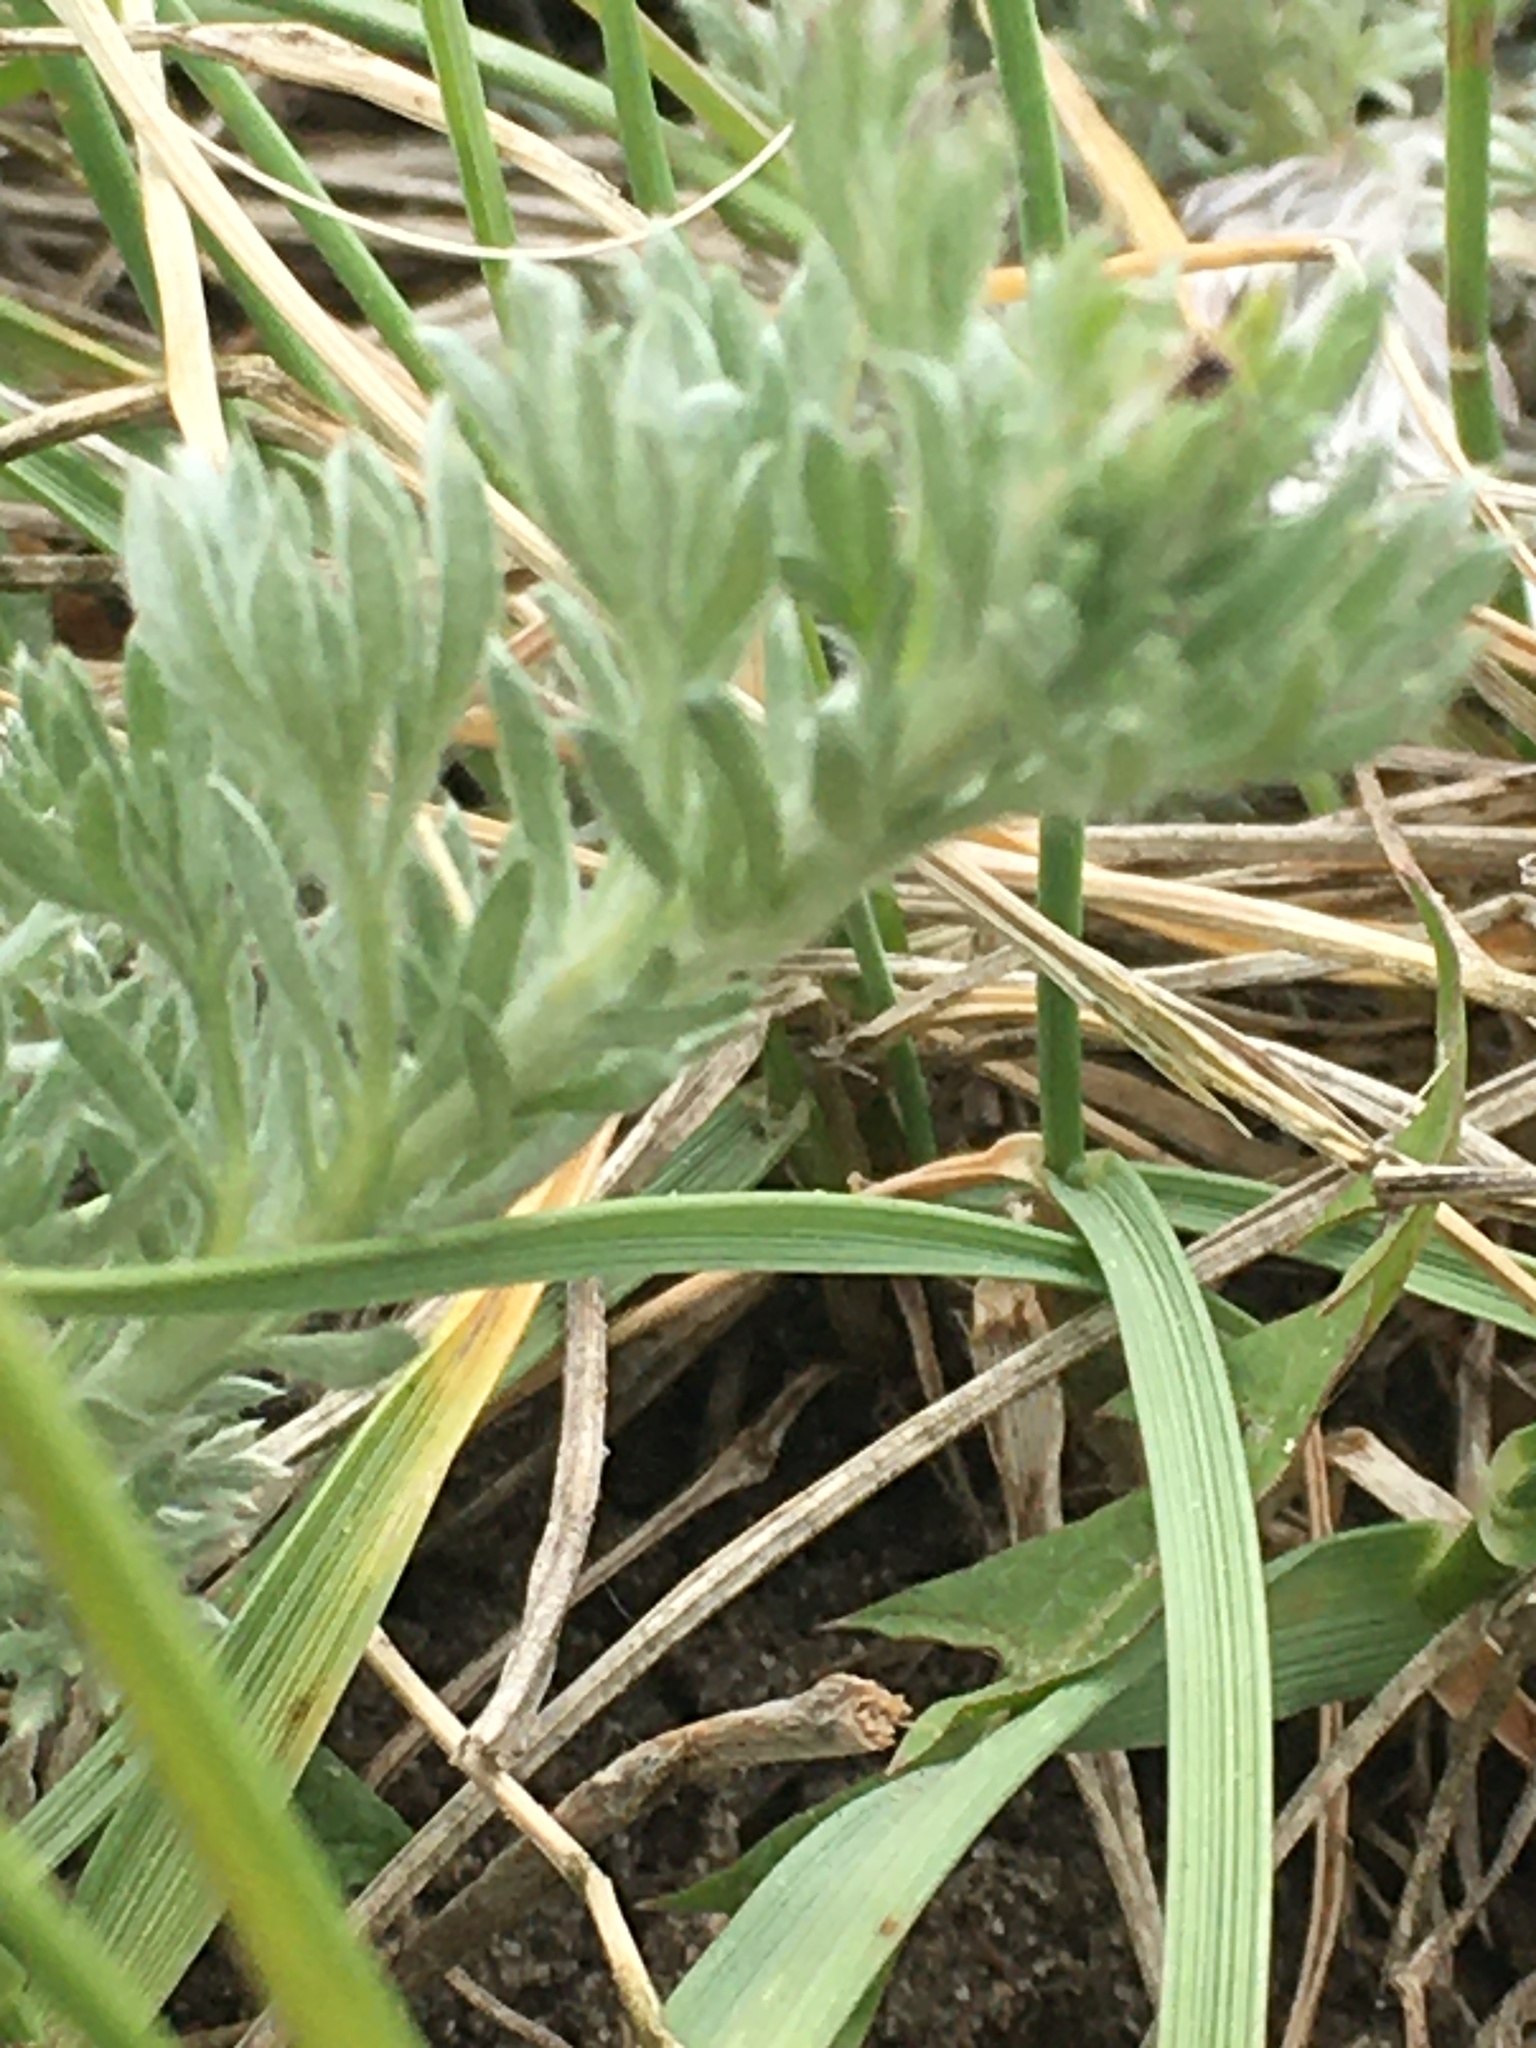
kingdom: Plantae
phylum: Tracheophyta
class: Magnoliopsida
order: Asterales
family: Asteraceae
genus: Artemisia
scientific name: Artemisia frigida
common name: Prairie sagewort
